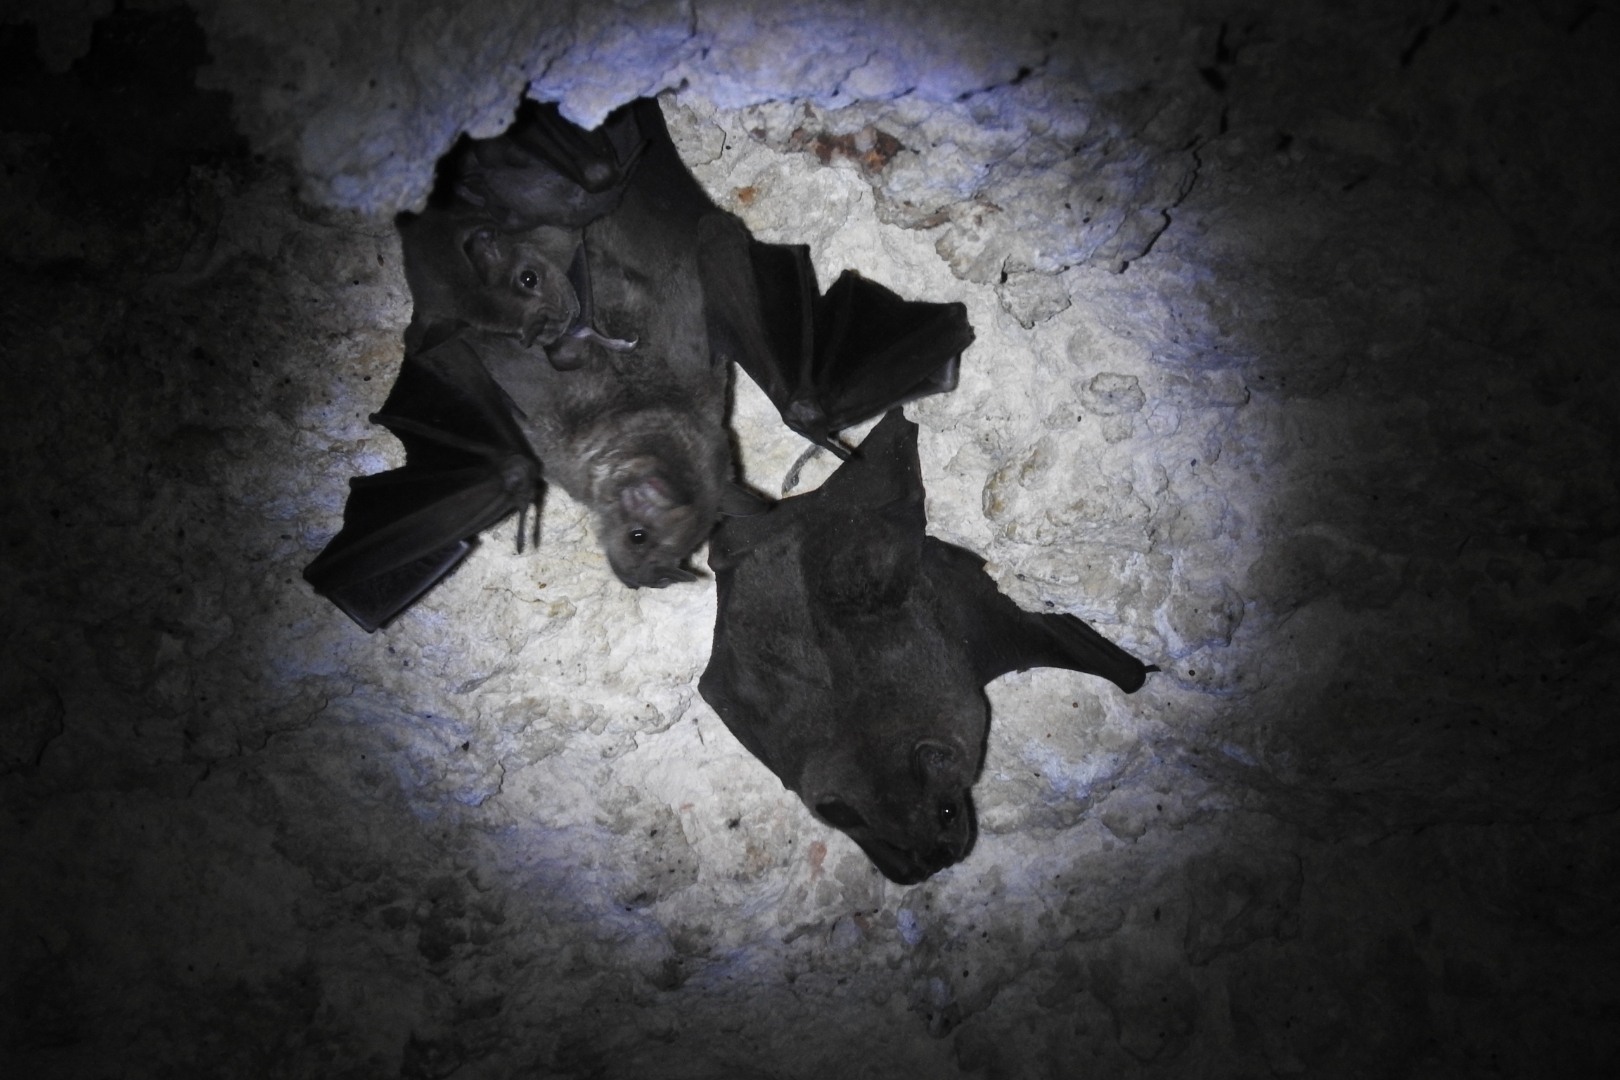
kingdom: Animalia
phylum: Chordata
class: Mammalia
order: Chiroptera
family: Phyllostomidae
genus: Artibeus
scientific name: Artibeus jamaicensis
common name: Jamaican fruit-eating bat
